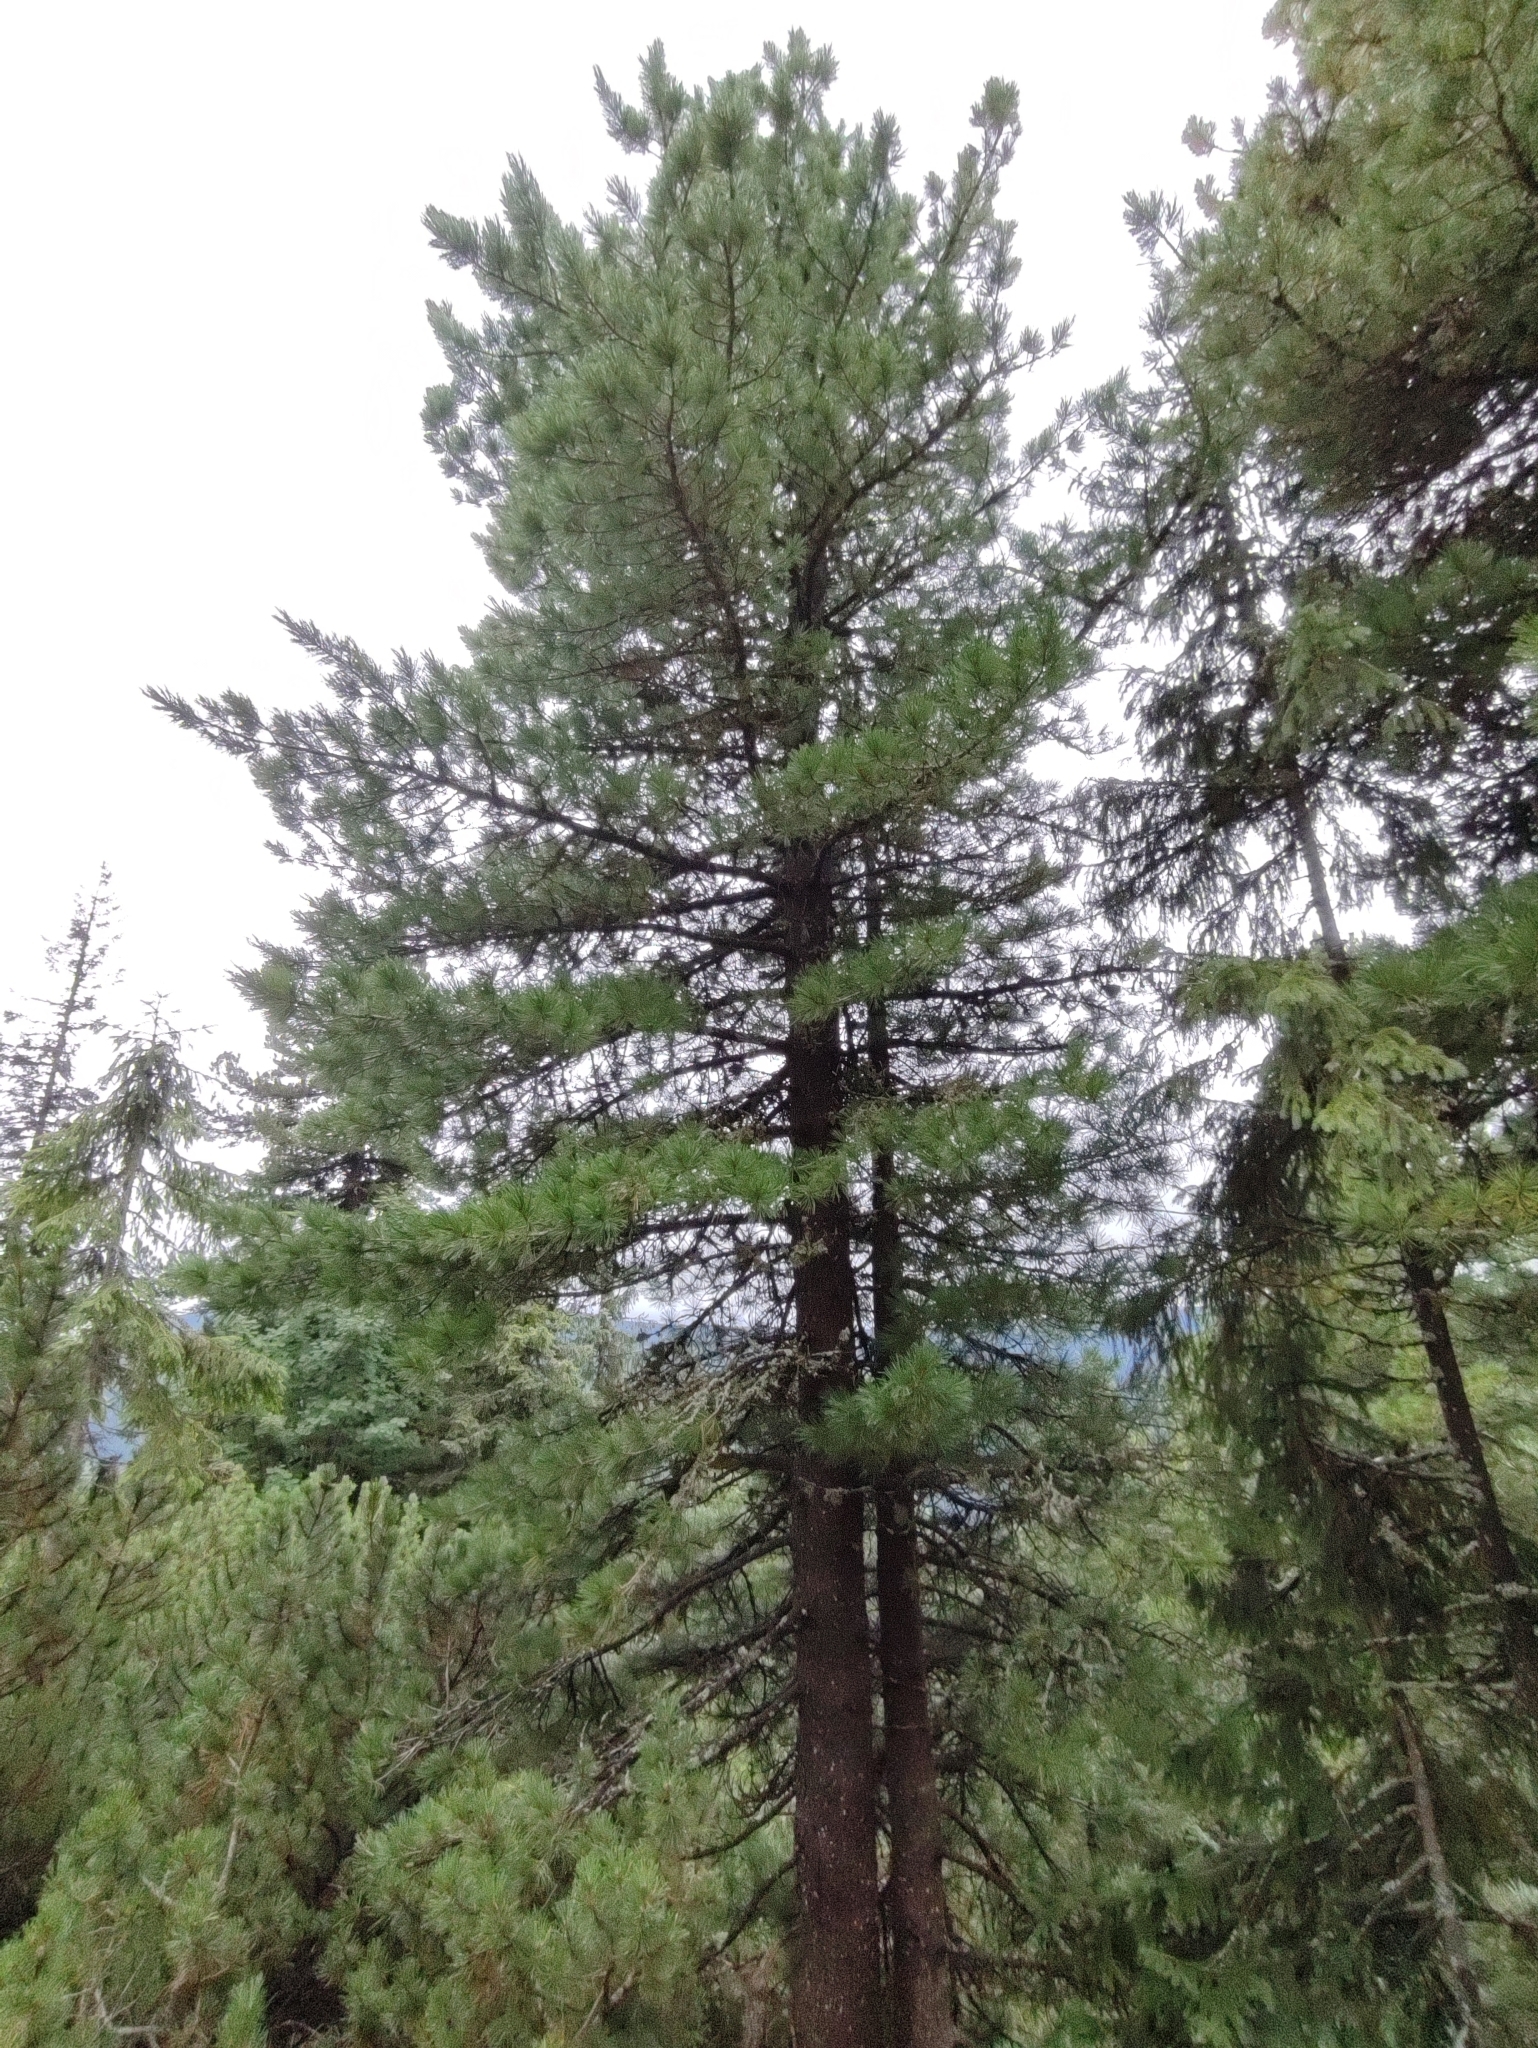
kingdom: Plantae
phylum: Tracheophyta
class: Pinopsida
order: Pinales
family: Pinaceae
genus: Pinus
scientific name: Pinus cembra
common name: Arolla pine
